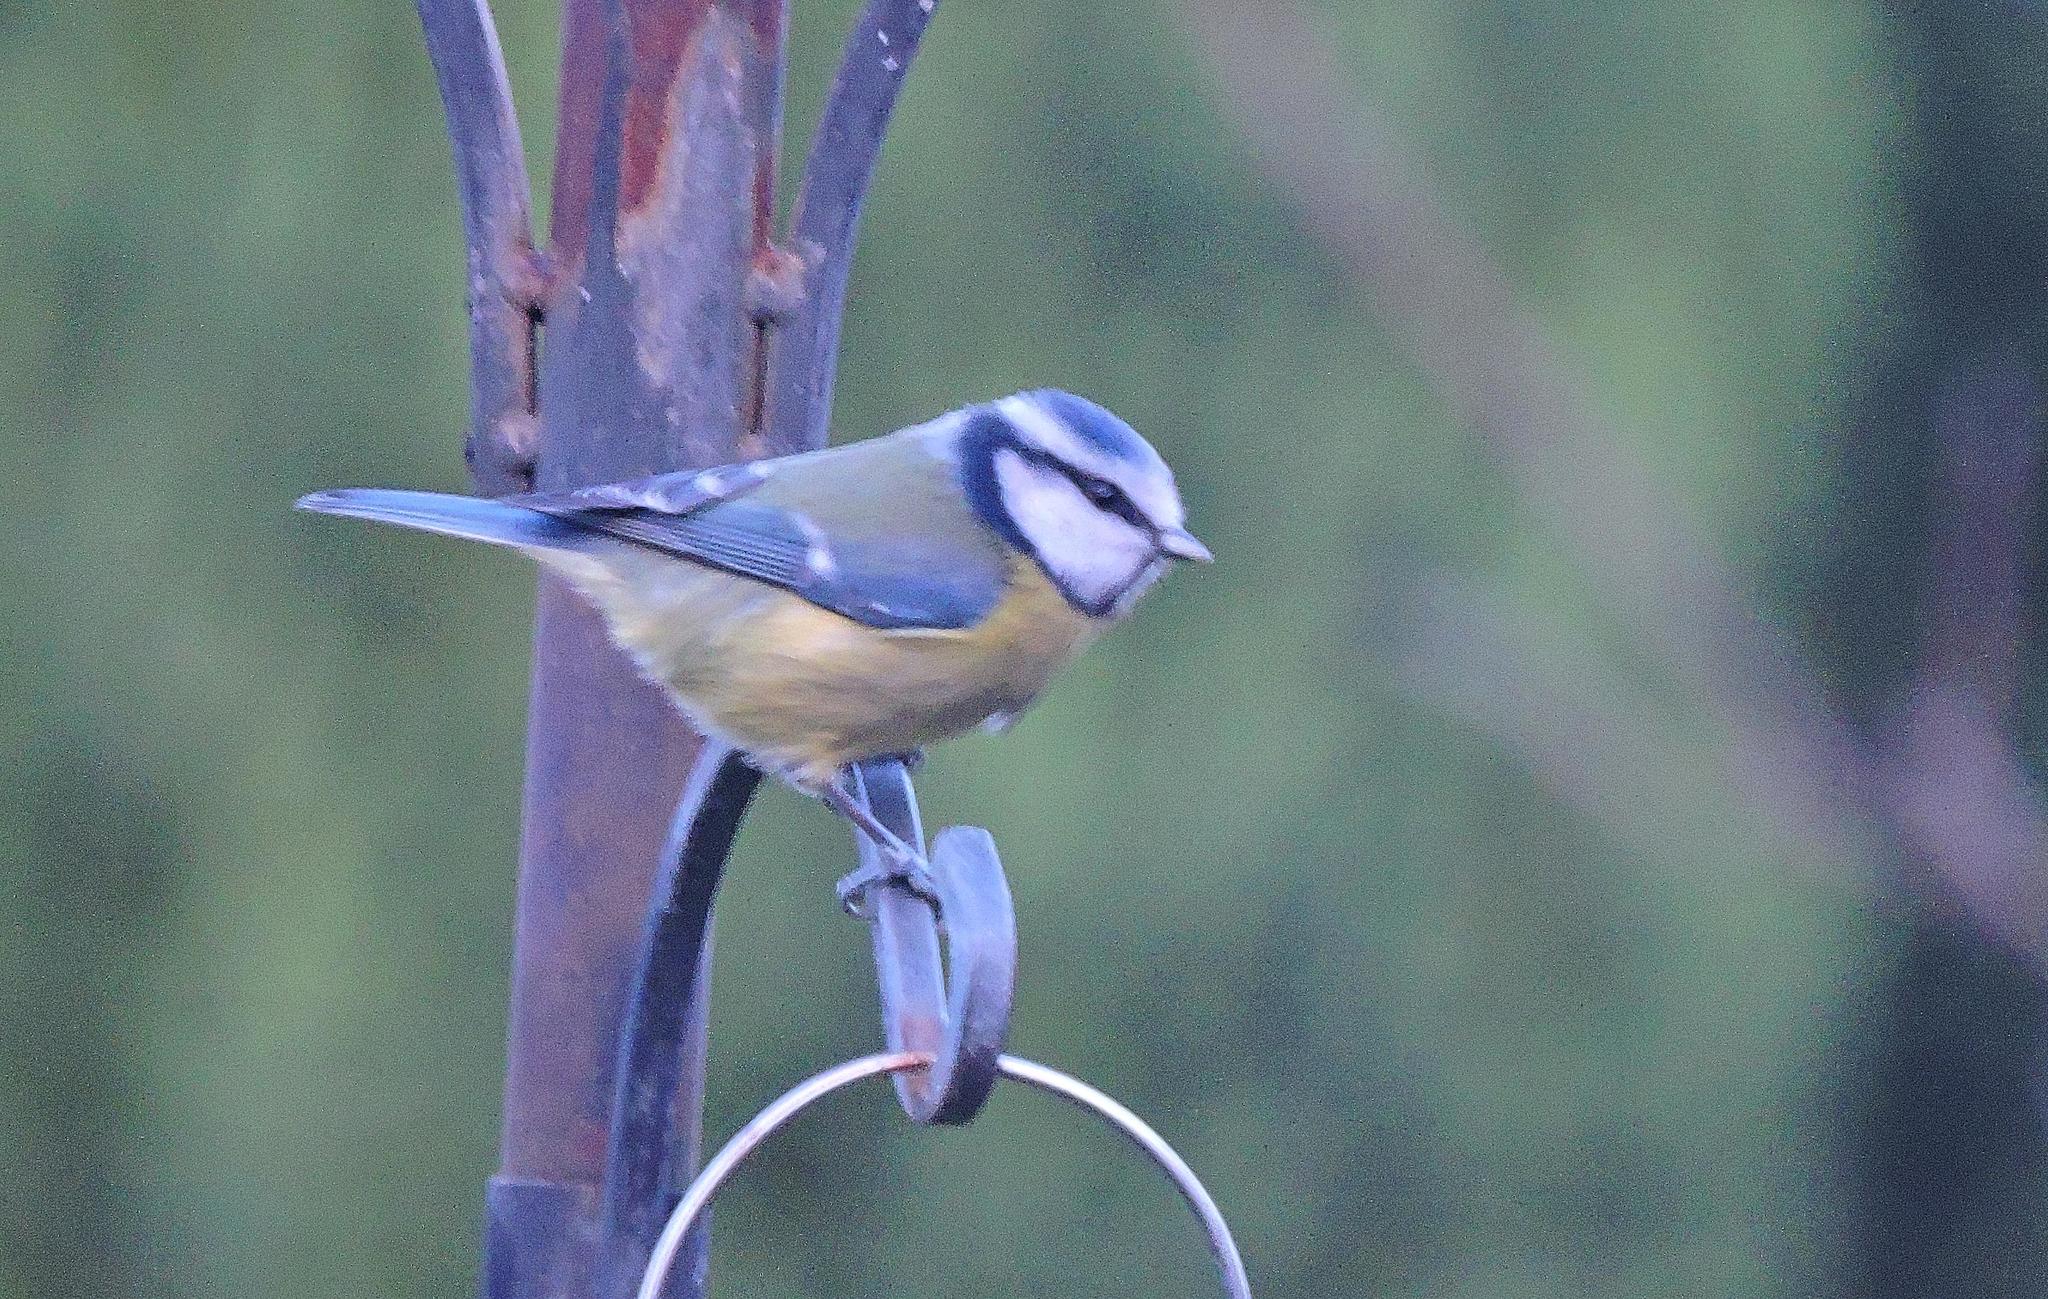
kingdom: Animalia
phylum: Chordata
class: Aves
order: Passeriformes
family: Paridae
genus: Cyanistes
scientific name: Cyanistes caeruleus
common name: Eurasian blue tit
